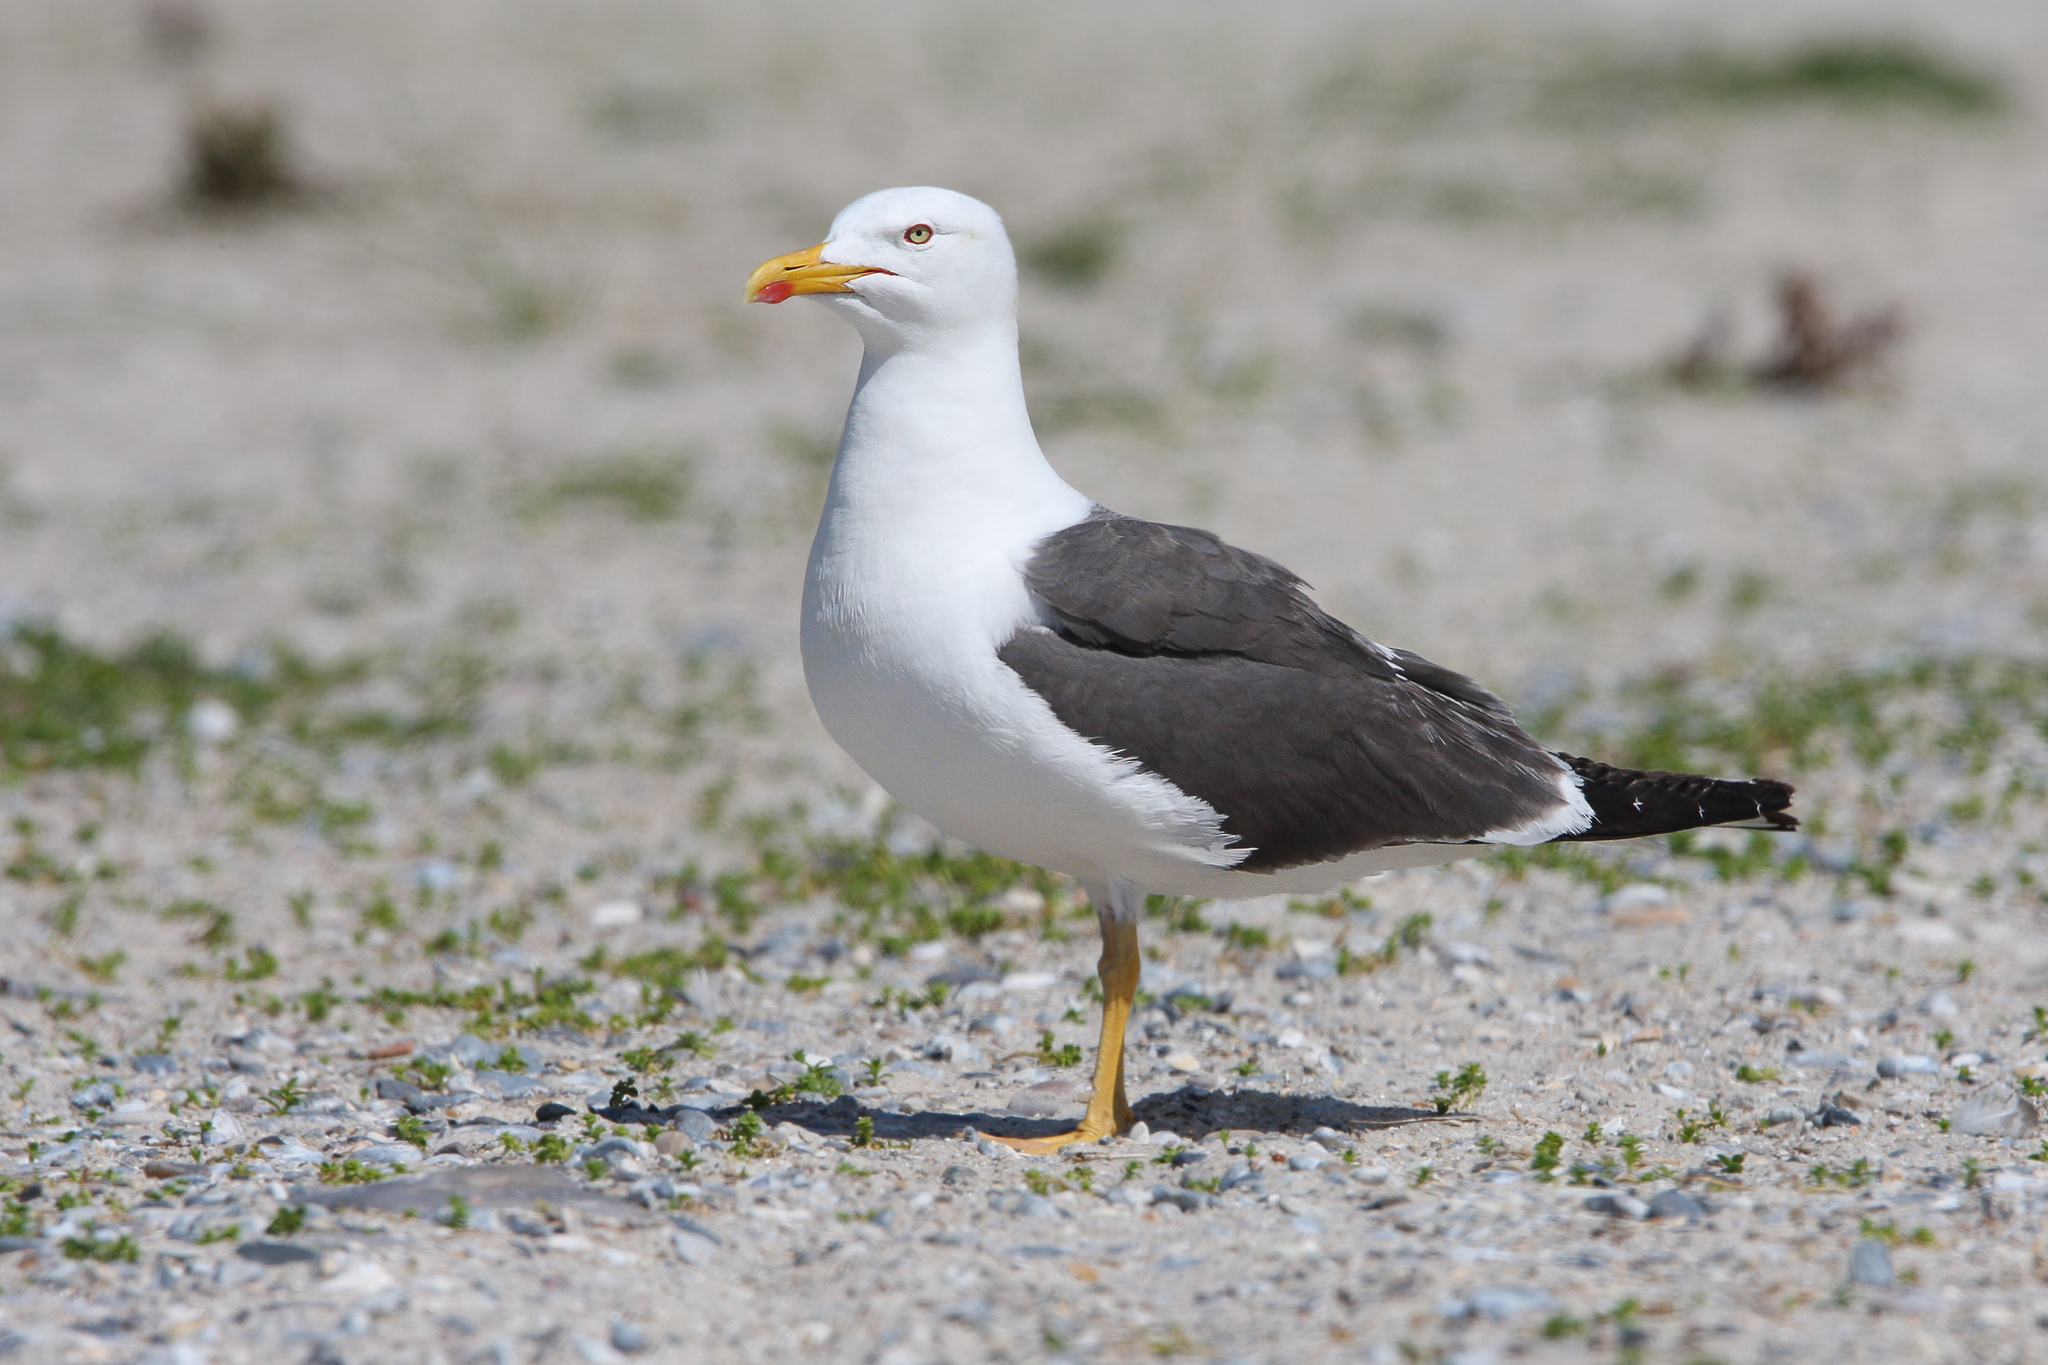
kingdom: Animalia
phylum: Chordata
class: Aves
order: Charadriiformes
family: Laridae
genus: Larus
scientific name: Larus fuscus
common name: Lesser black-backed gull
